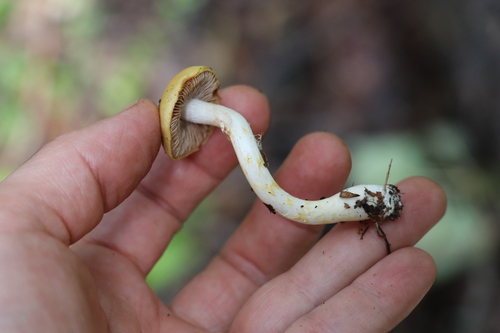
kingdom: Fungi
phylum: Basidiomycota
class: Agaricomycetes
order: Agaricales
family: Cortinariaceae
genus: Cortinarius
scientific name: Cortinarius delibutus
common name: Yellow webcap
